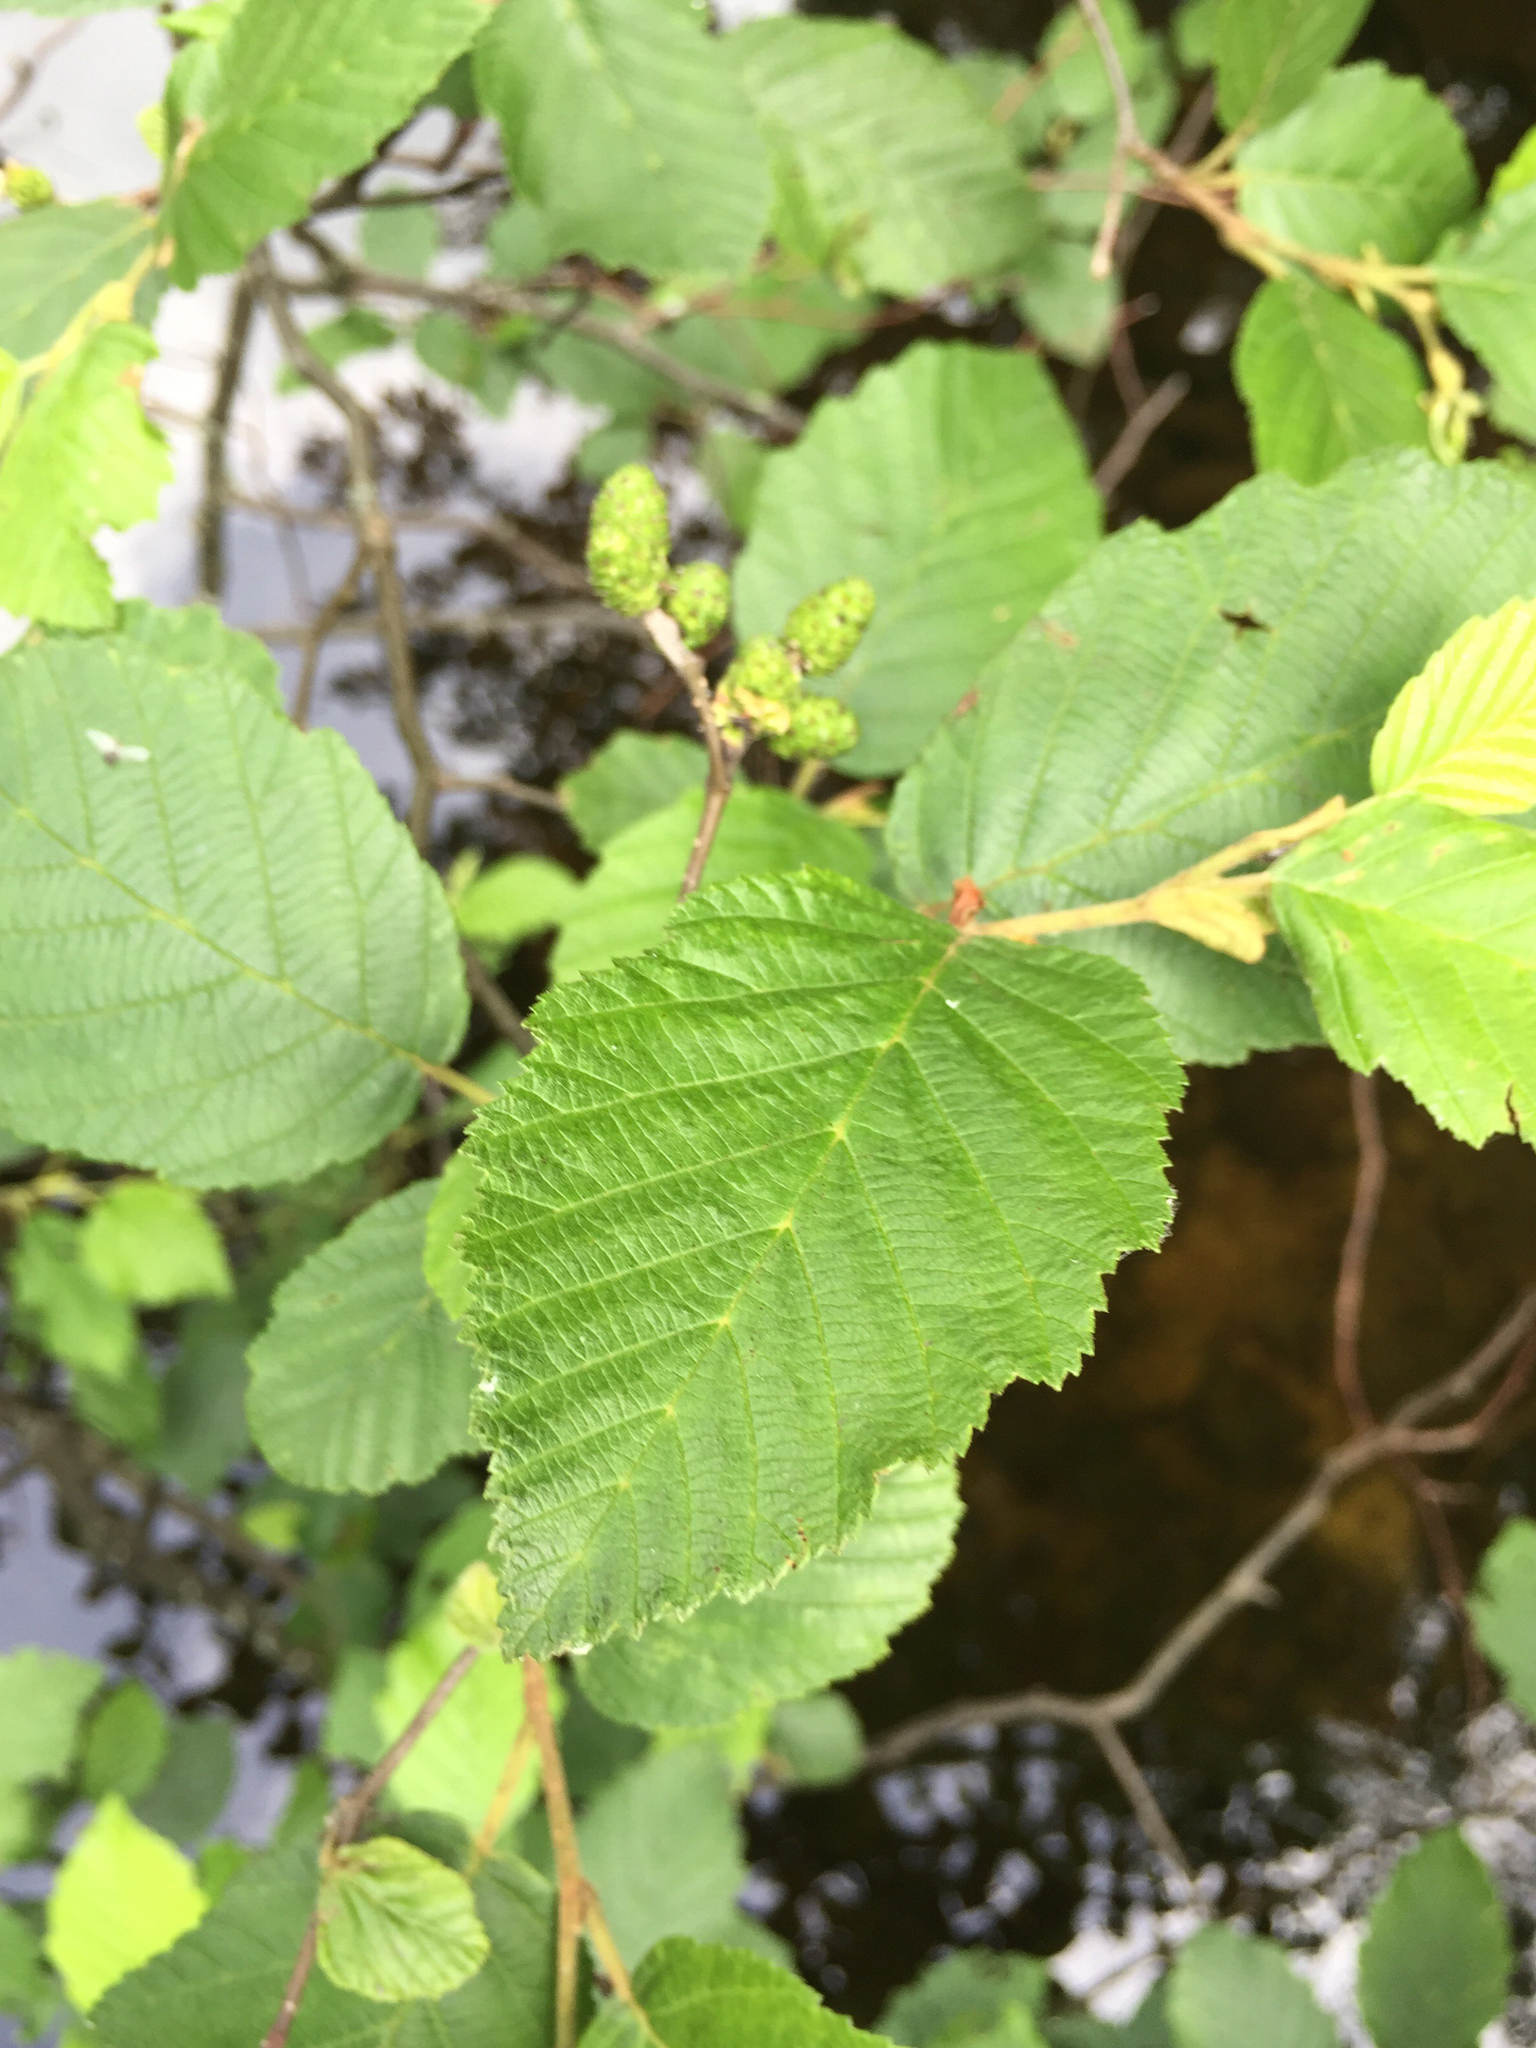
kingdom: Plantae
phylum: Tracheophyta
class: Magnoliopsida
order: Fagales
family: Betulaceae
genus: Alnus
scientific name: Alnus incana
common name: Grey alder
